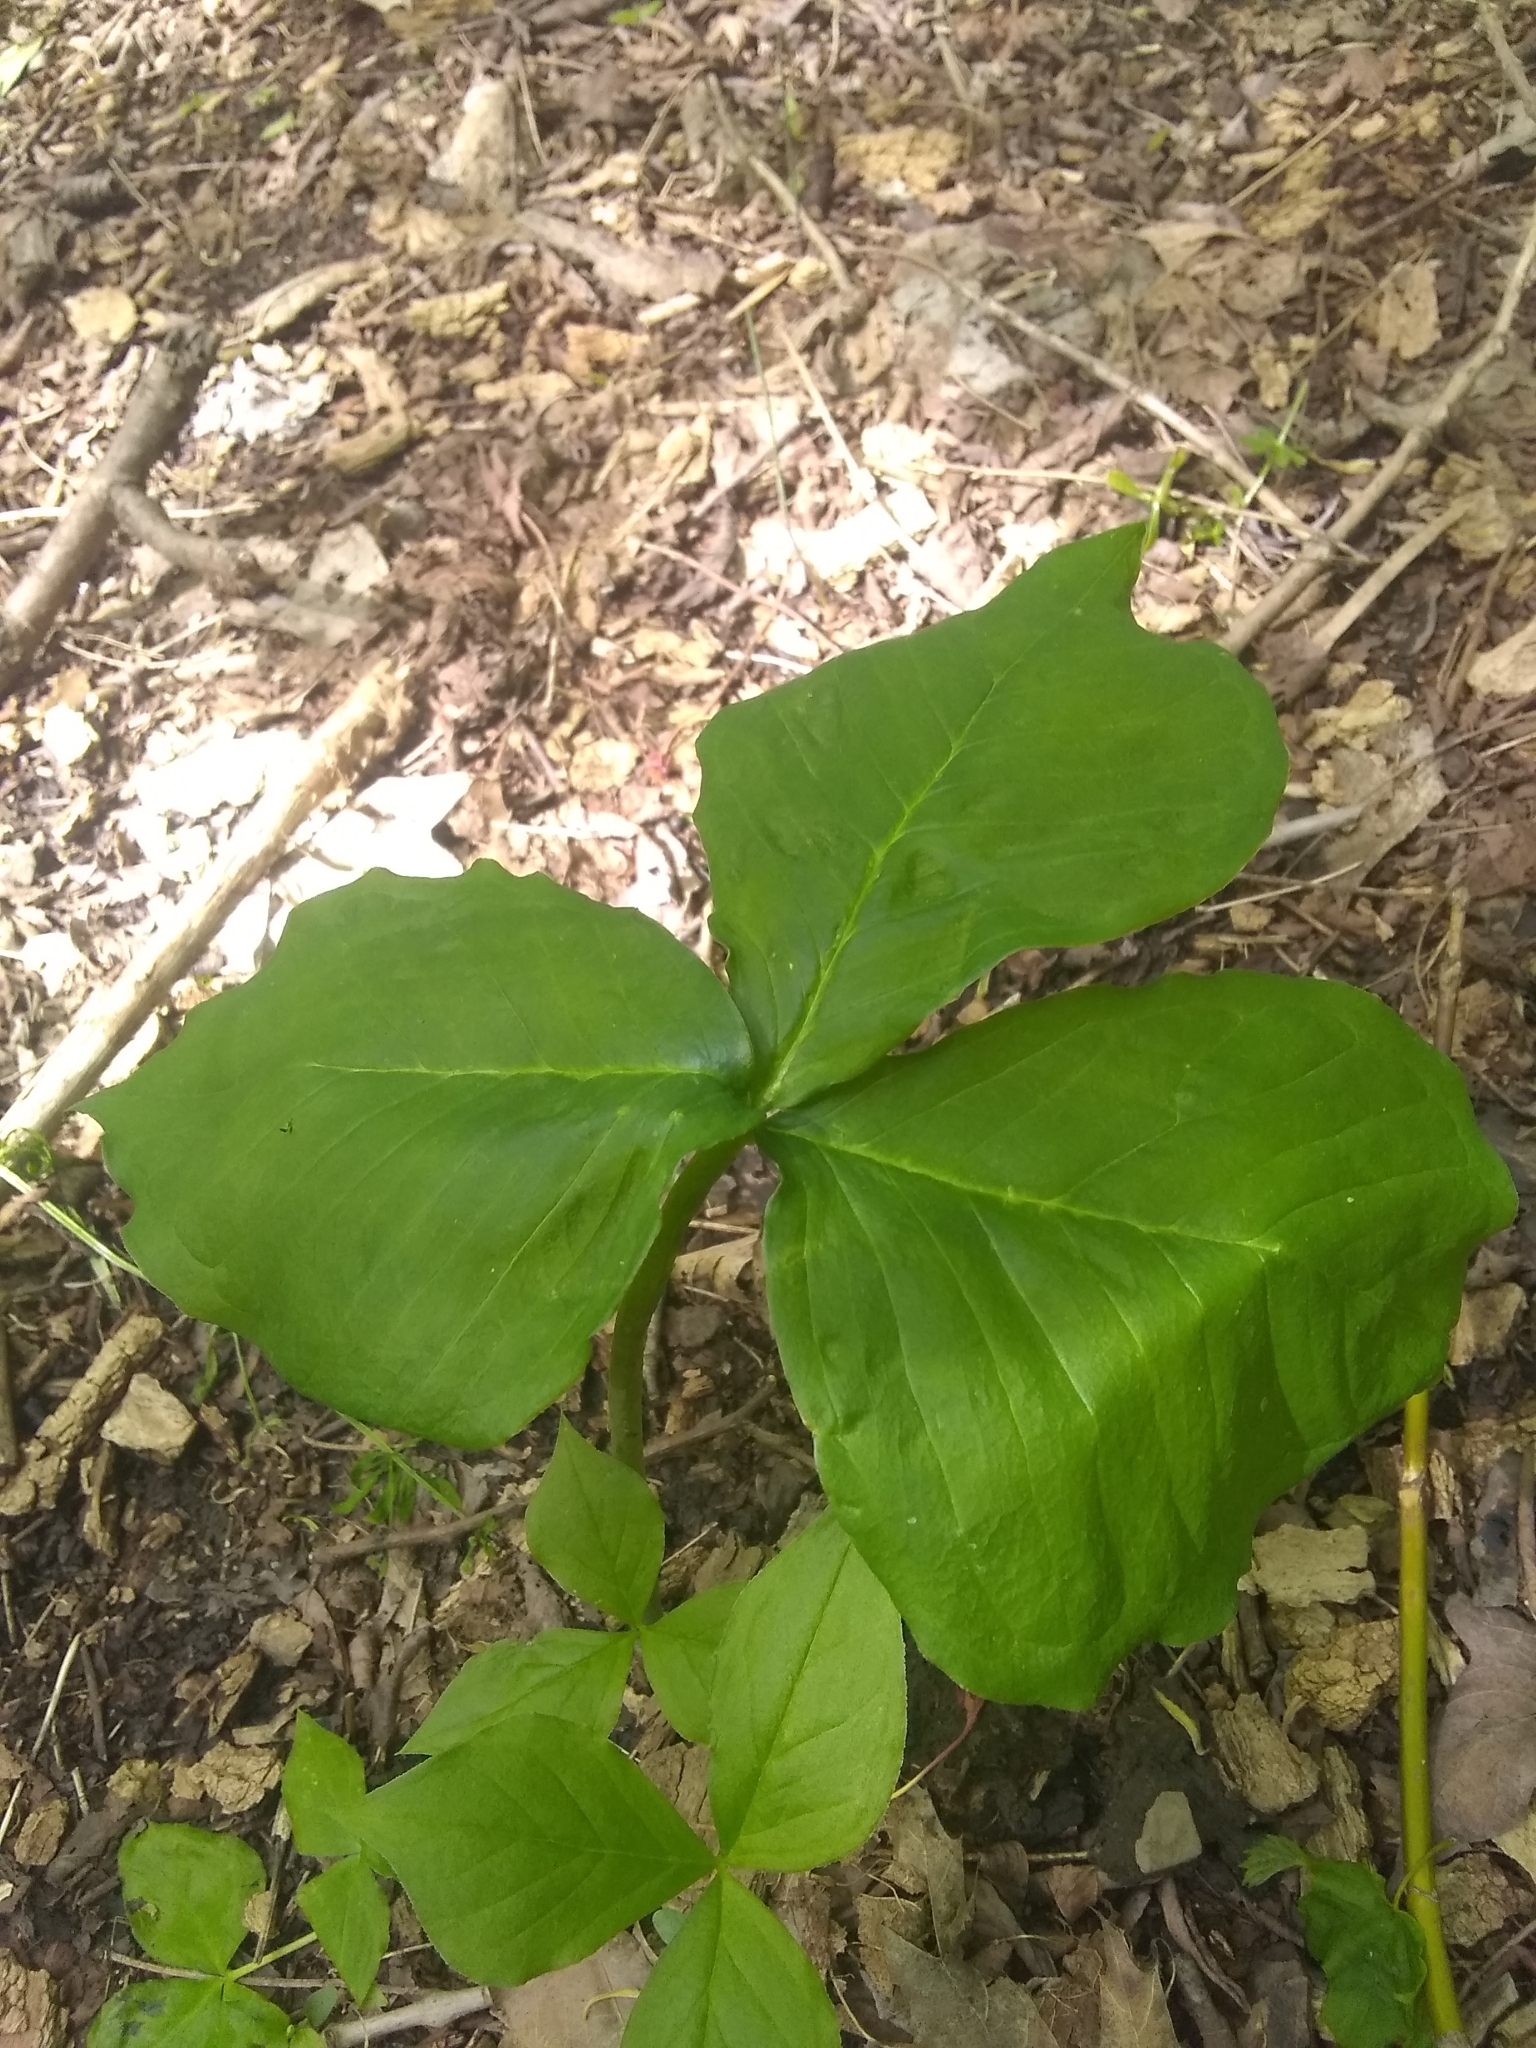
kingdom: Plantae
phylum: Tracheophyta
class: Liliopsida
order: Alismatales
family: Araceae
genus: Arisaema
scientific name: Arisaema triphyllum
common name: Jack-in-the-pulpit
